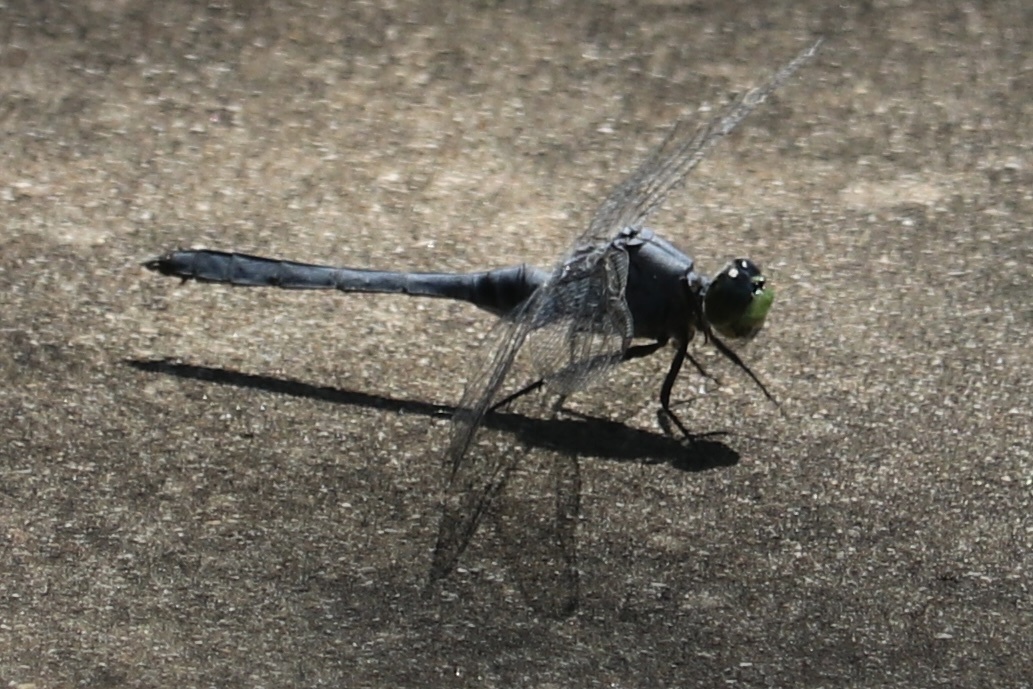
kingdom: Animalia
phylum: Arthropoda
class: Insecta
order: Odonata
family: Libellulidae
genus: Erythemis
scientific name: Erythemis simplicicollis
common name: Eastern pondhawk
